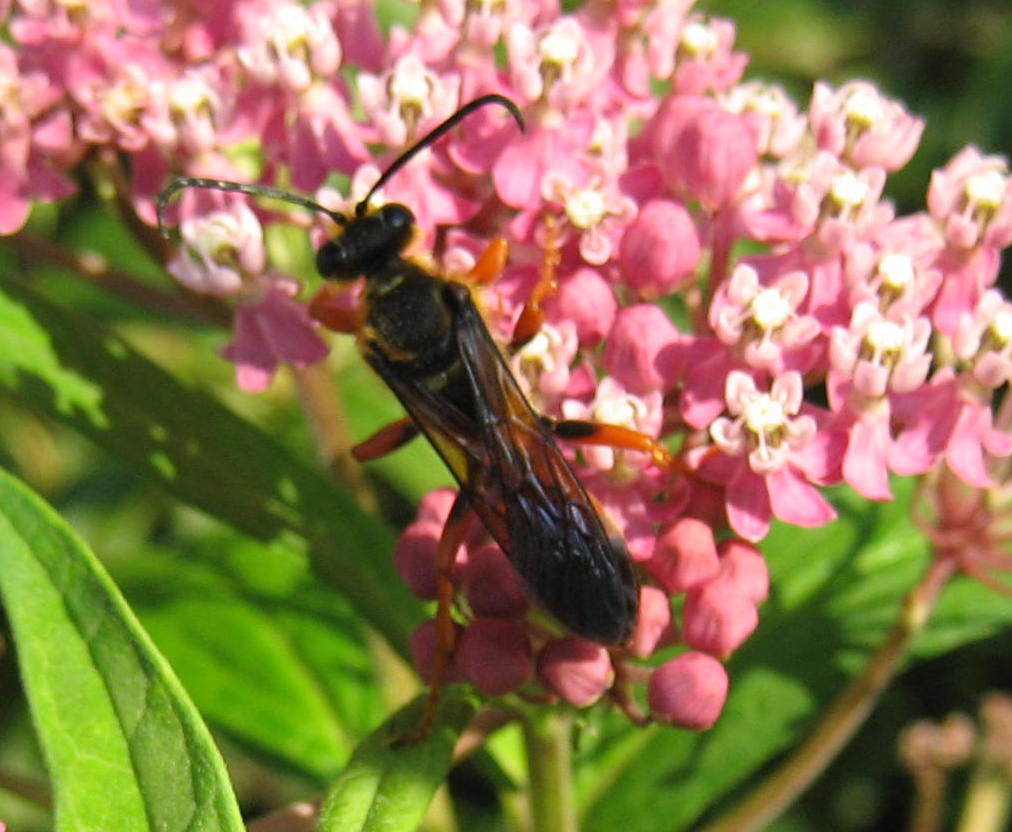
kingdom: Animalia
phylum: Arthropoda
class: Insecta
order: Hymenoptera
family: Sphecidae
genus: Sphex
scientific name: Sphex ichneumoneus
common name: Great golden digger wasp
